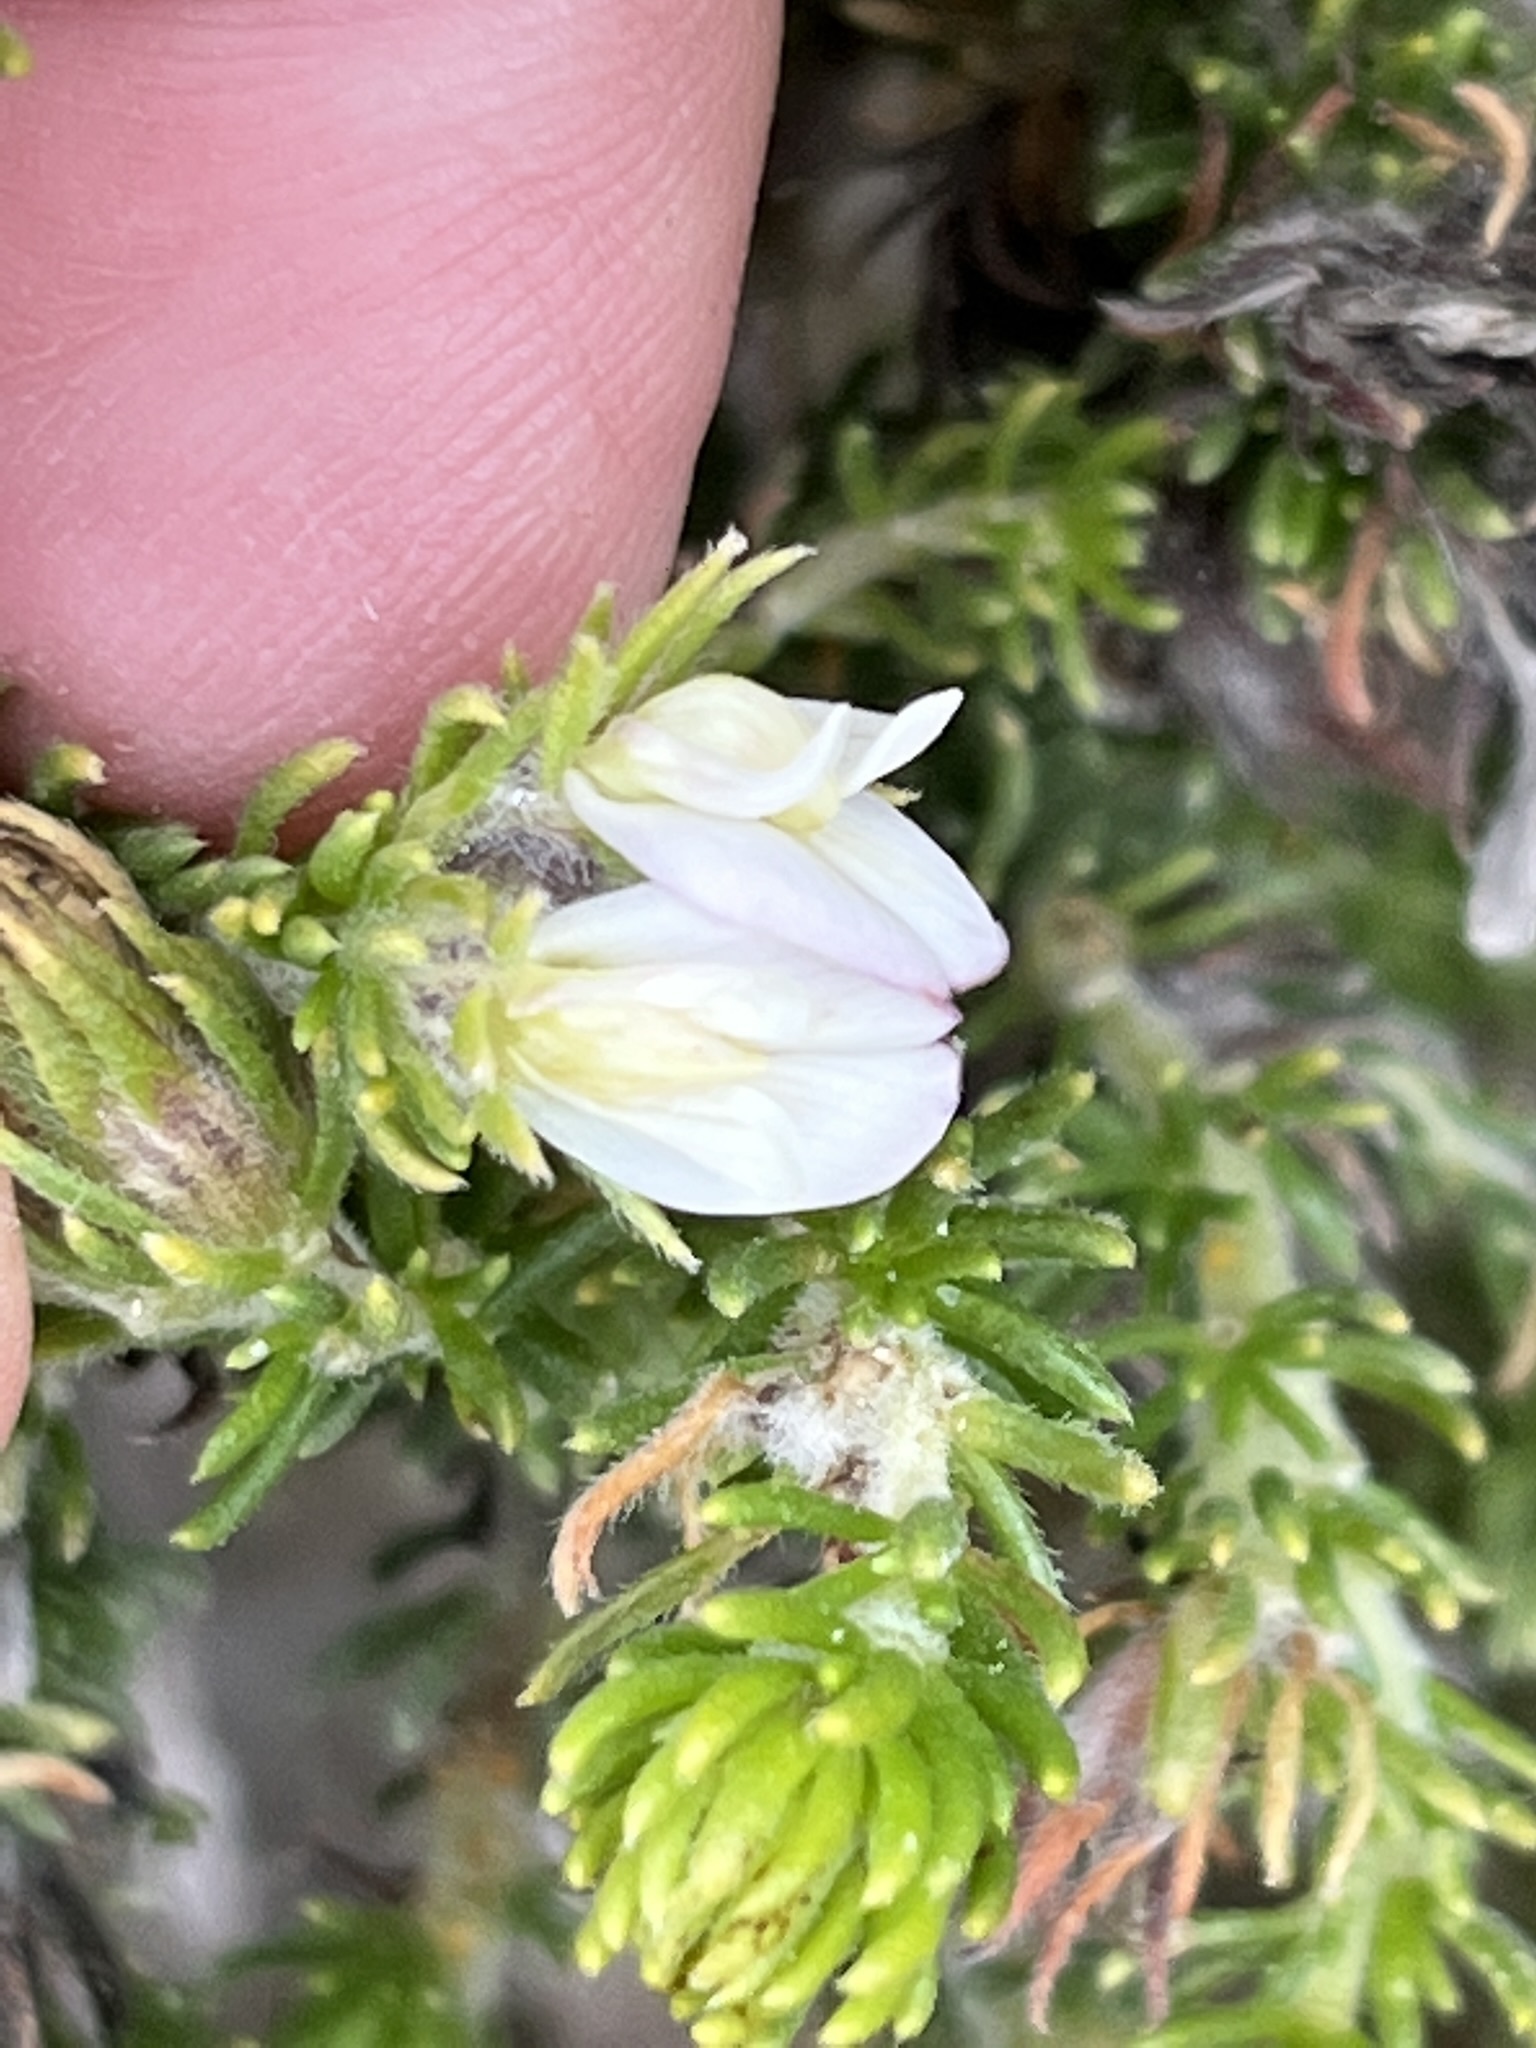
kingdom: Plantae
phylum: Tracheophyta
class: Magnoliopsida
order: Fabales
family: Fabaceae
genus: Aspalathus
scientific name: Aspalathus forbesii
